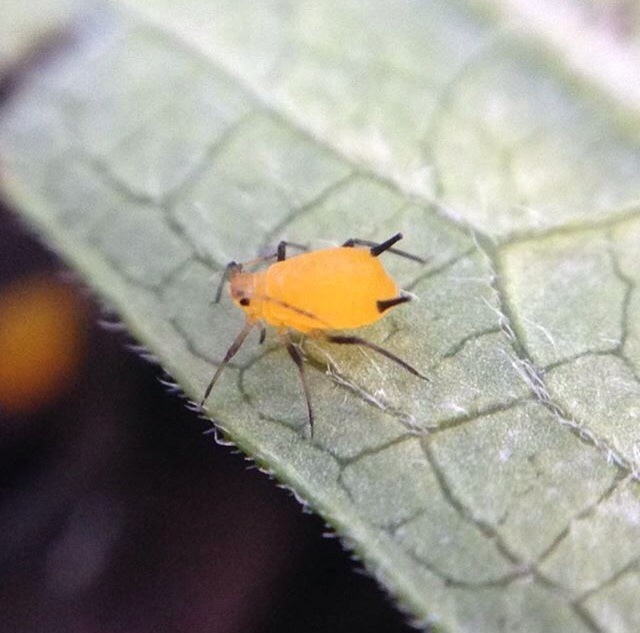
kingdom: Animalia
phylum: Arthropoda
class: Insecta
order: Hemiptera
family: Aphididae
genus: Aphis
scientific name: Aphis nerii
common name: Oleander aphid
